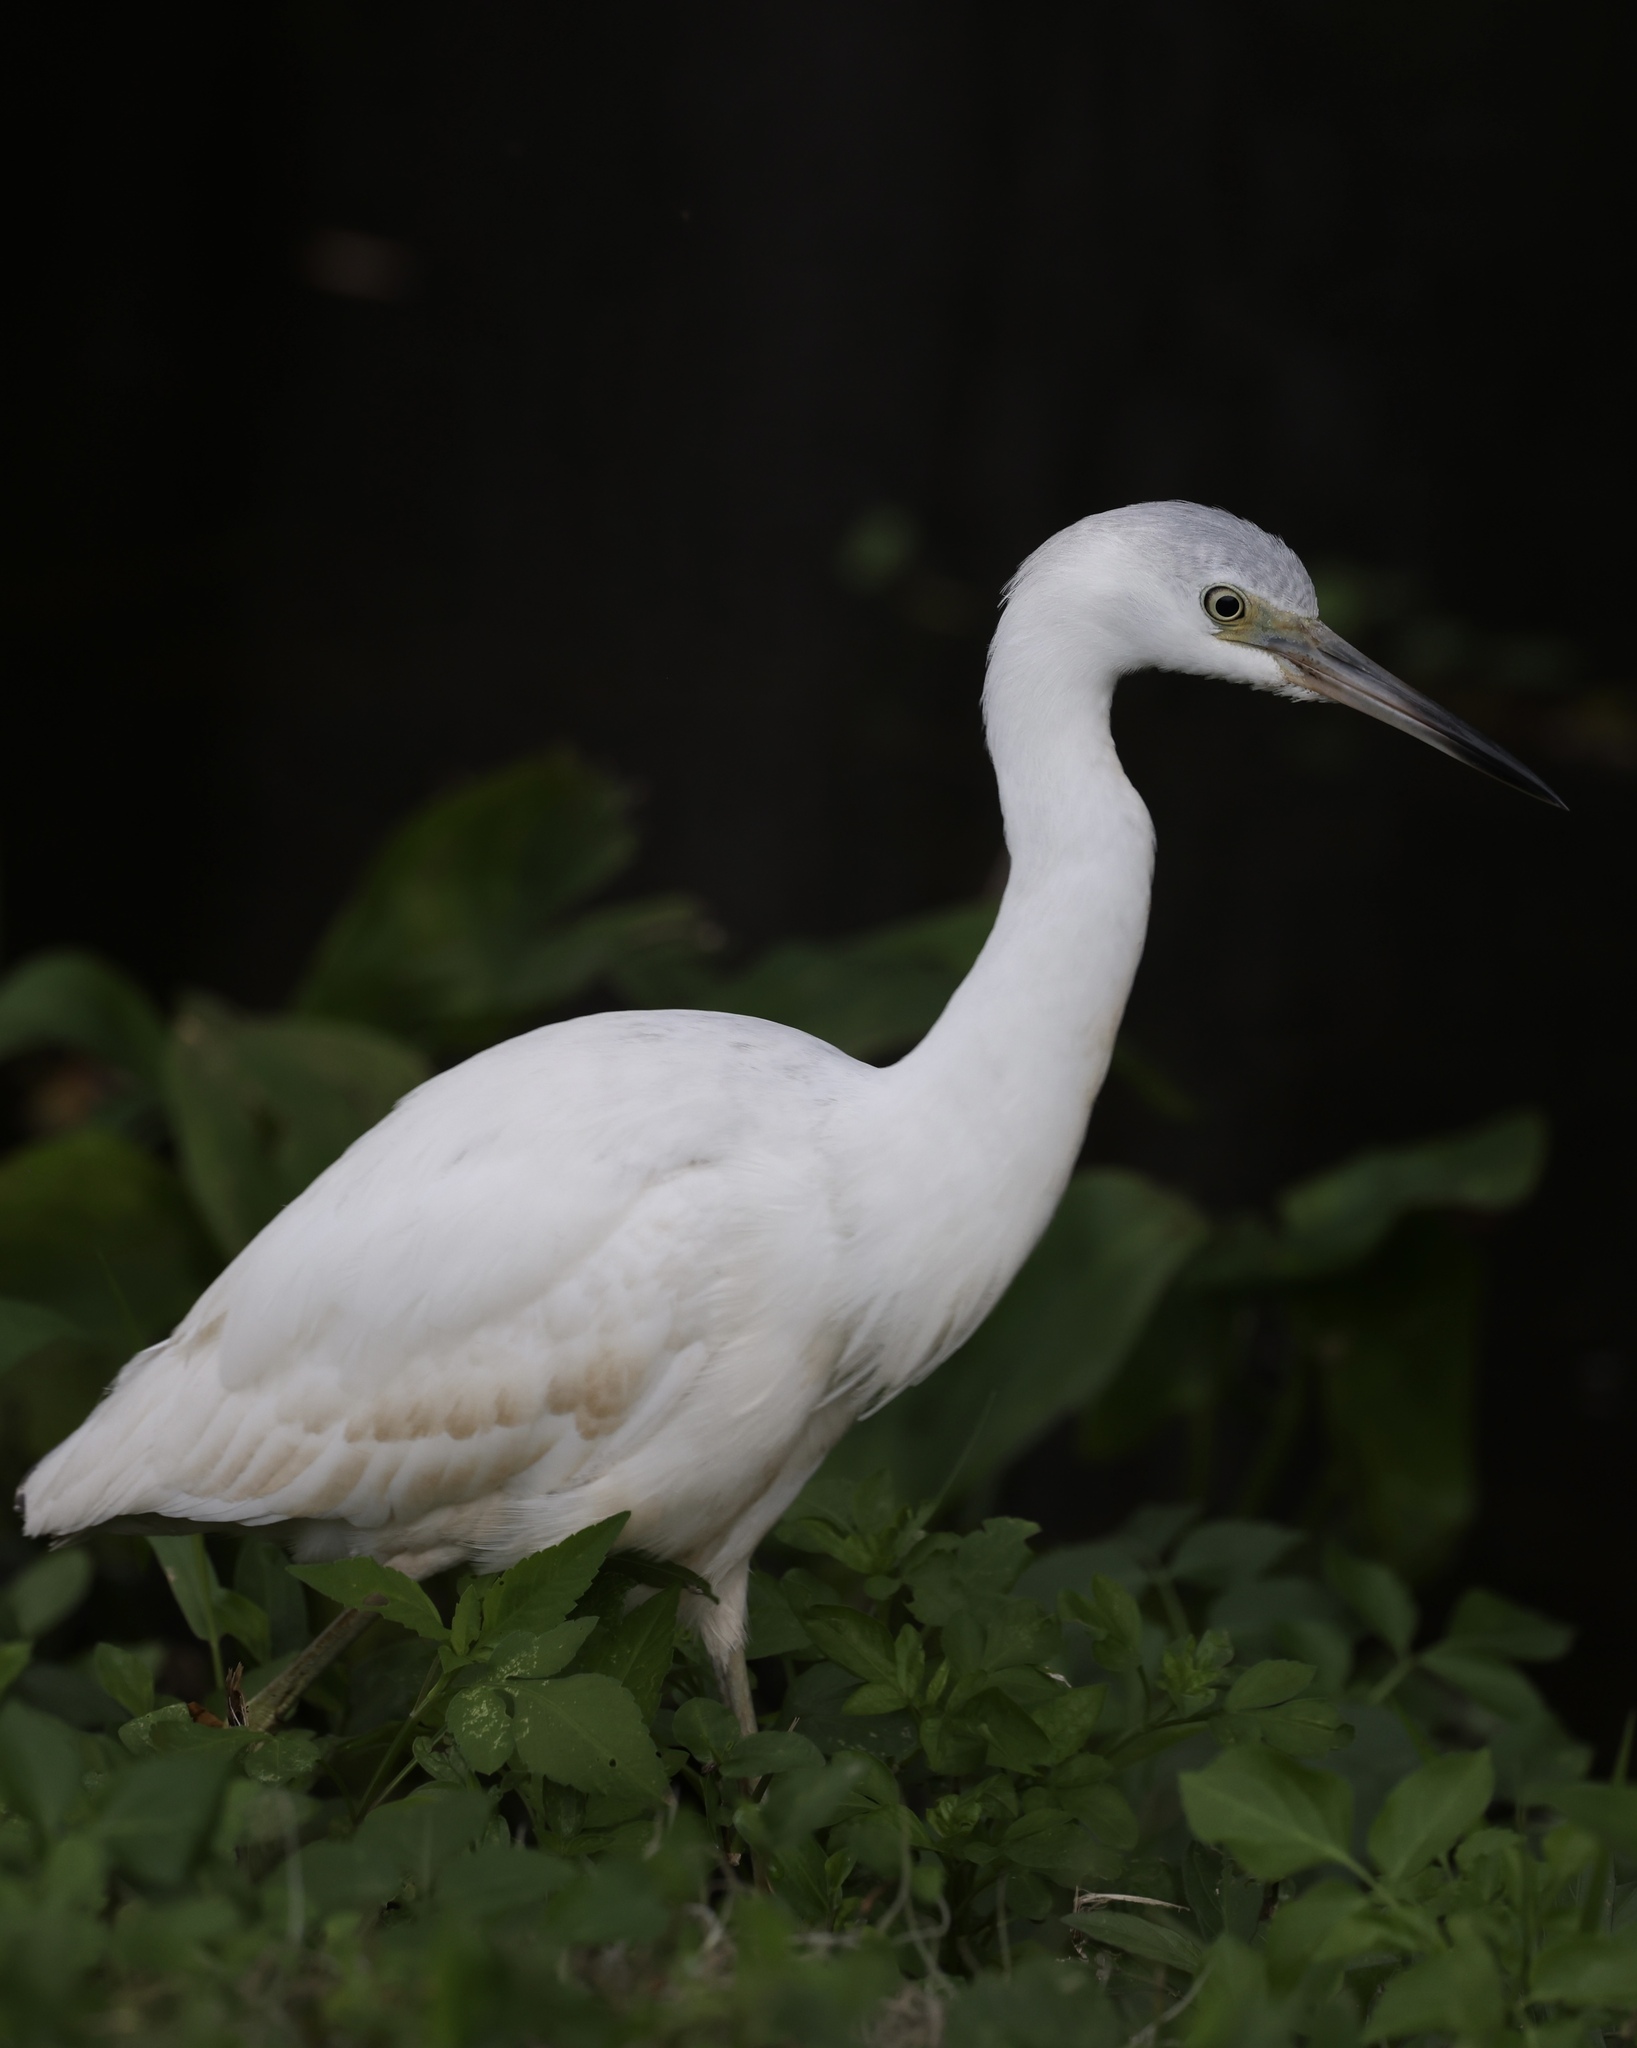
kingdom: Animalia
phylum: Chordata
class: Aves
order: Pelecaniformes
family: Ardeidae
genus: Egretta
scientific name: Egretta caerulea
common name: Little blue heron
